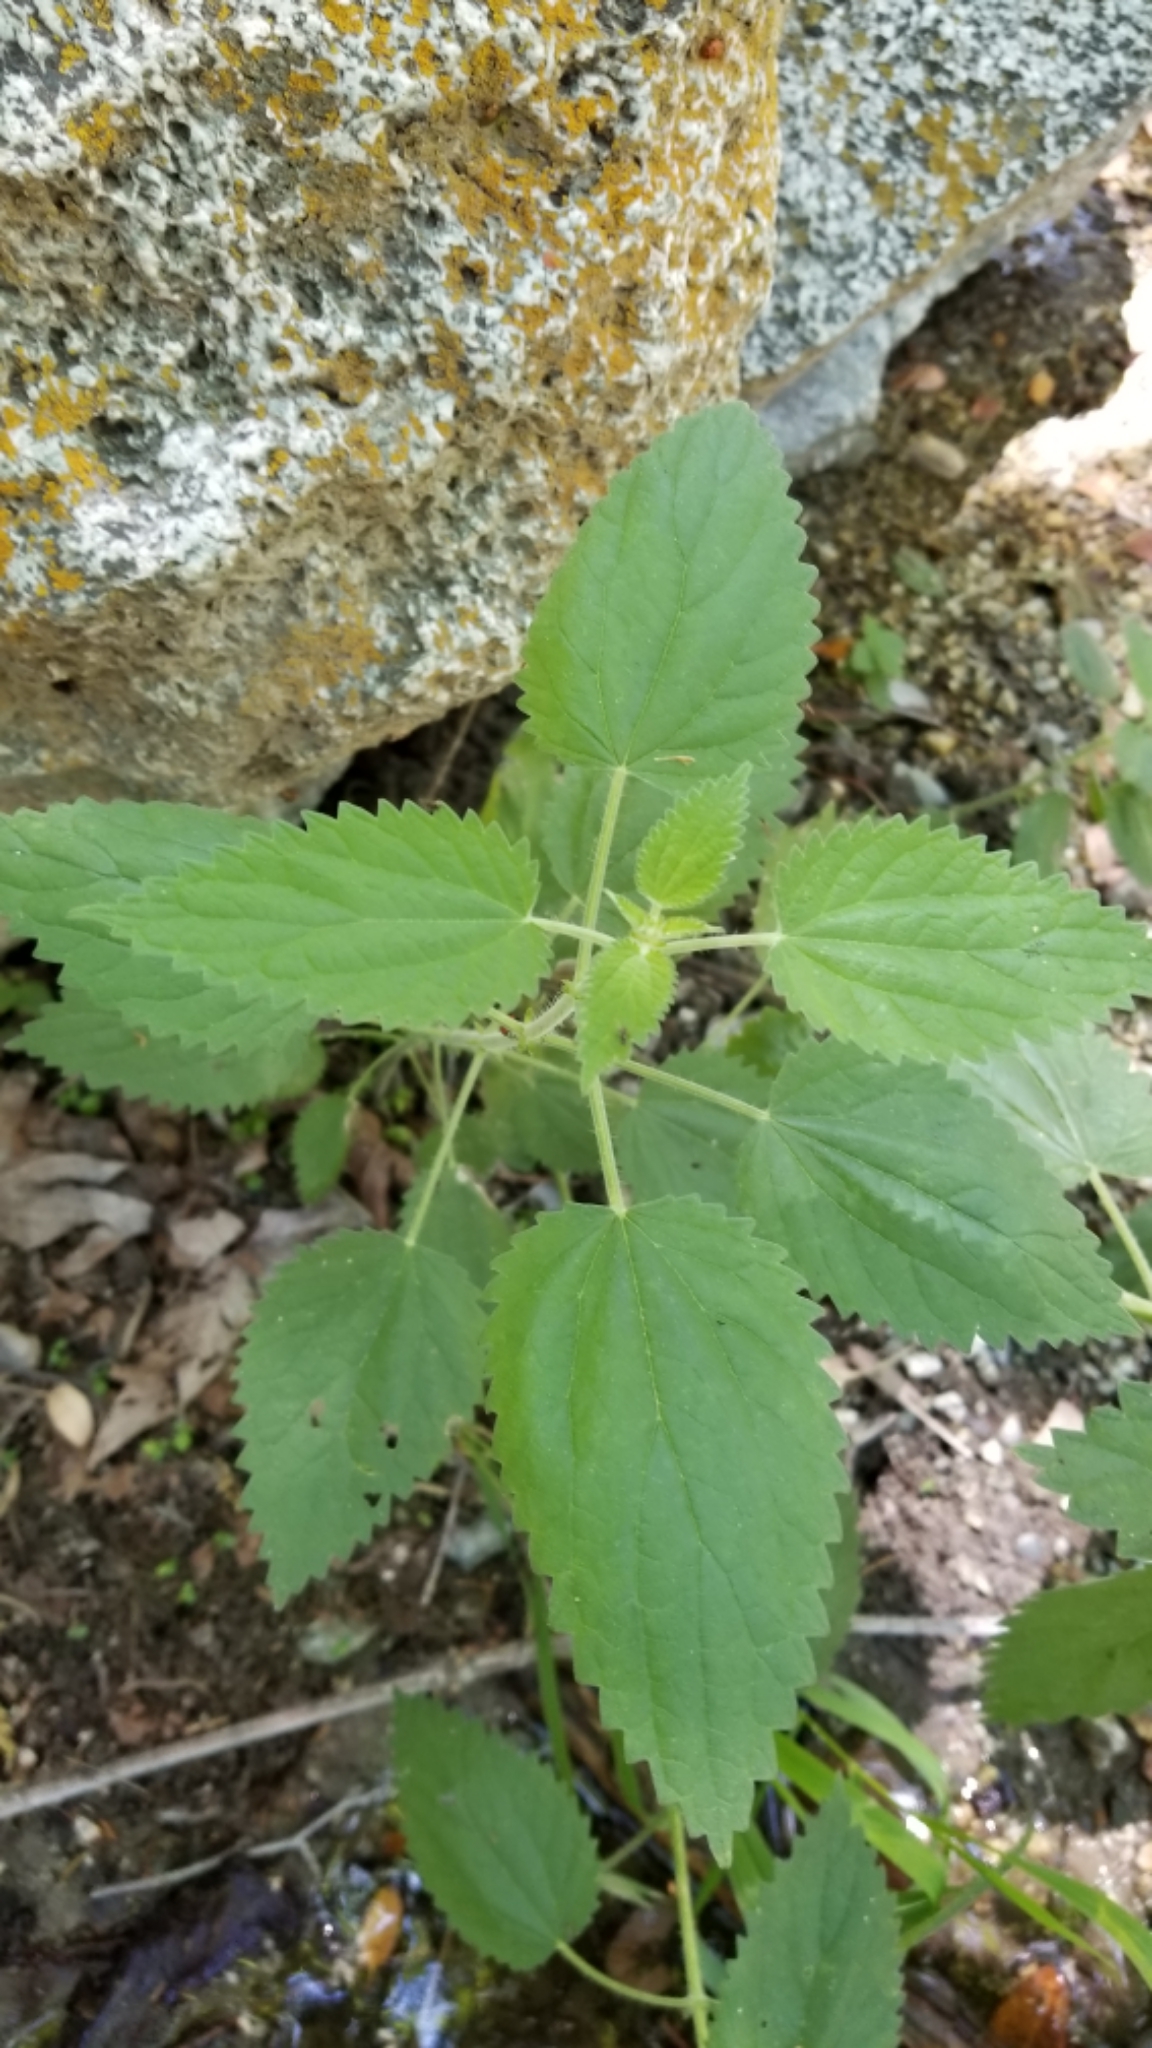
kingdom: Plantae
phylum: Tracheophyta
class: Magnoliopsida
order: Rosales
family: Urticaceae
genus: Urtica
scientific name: Urtica dioica
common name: Common nettle
